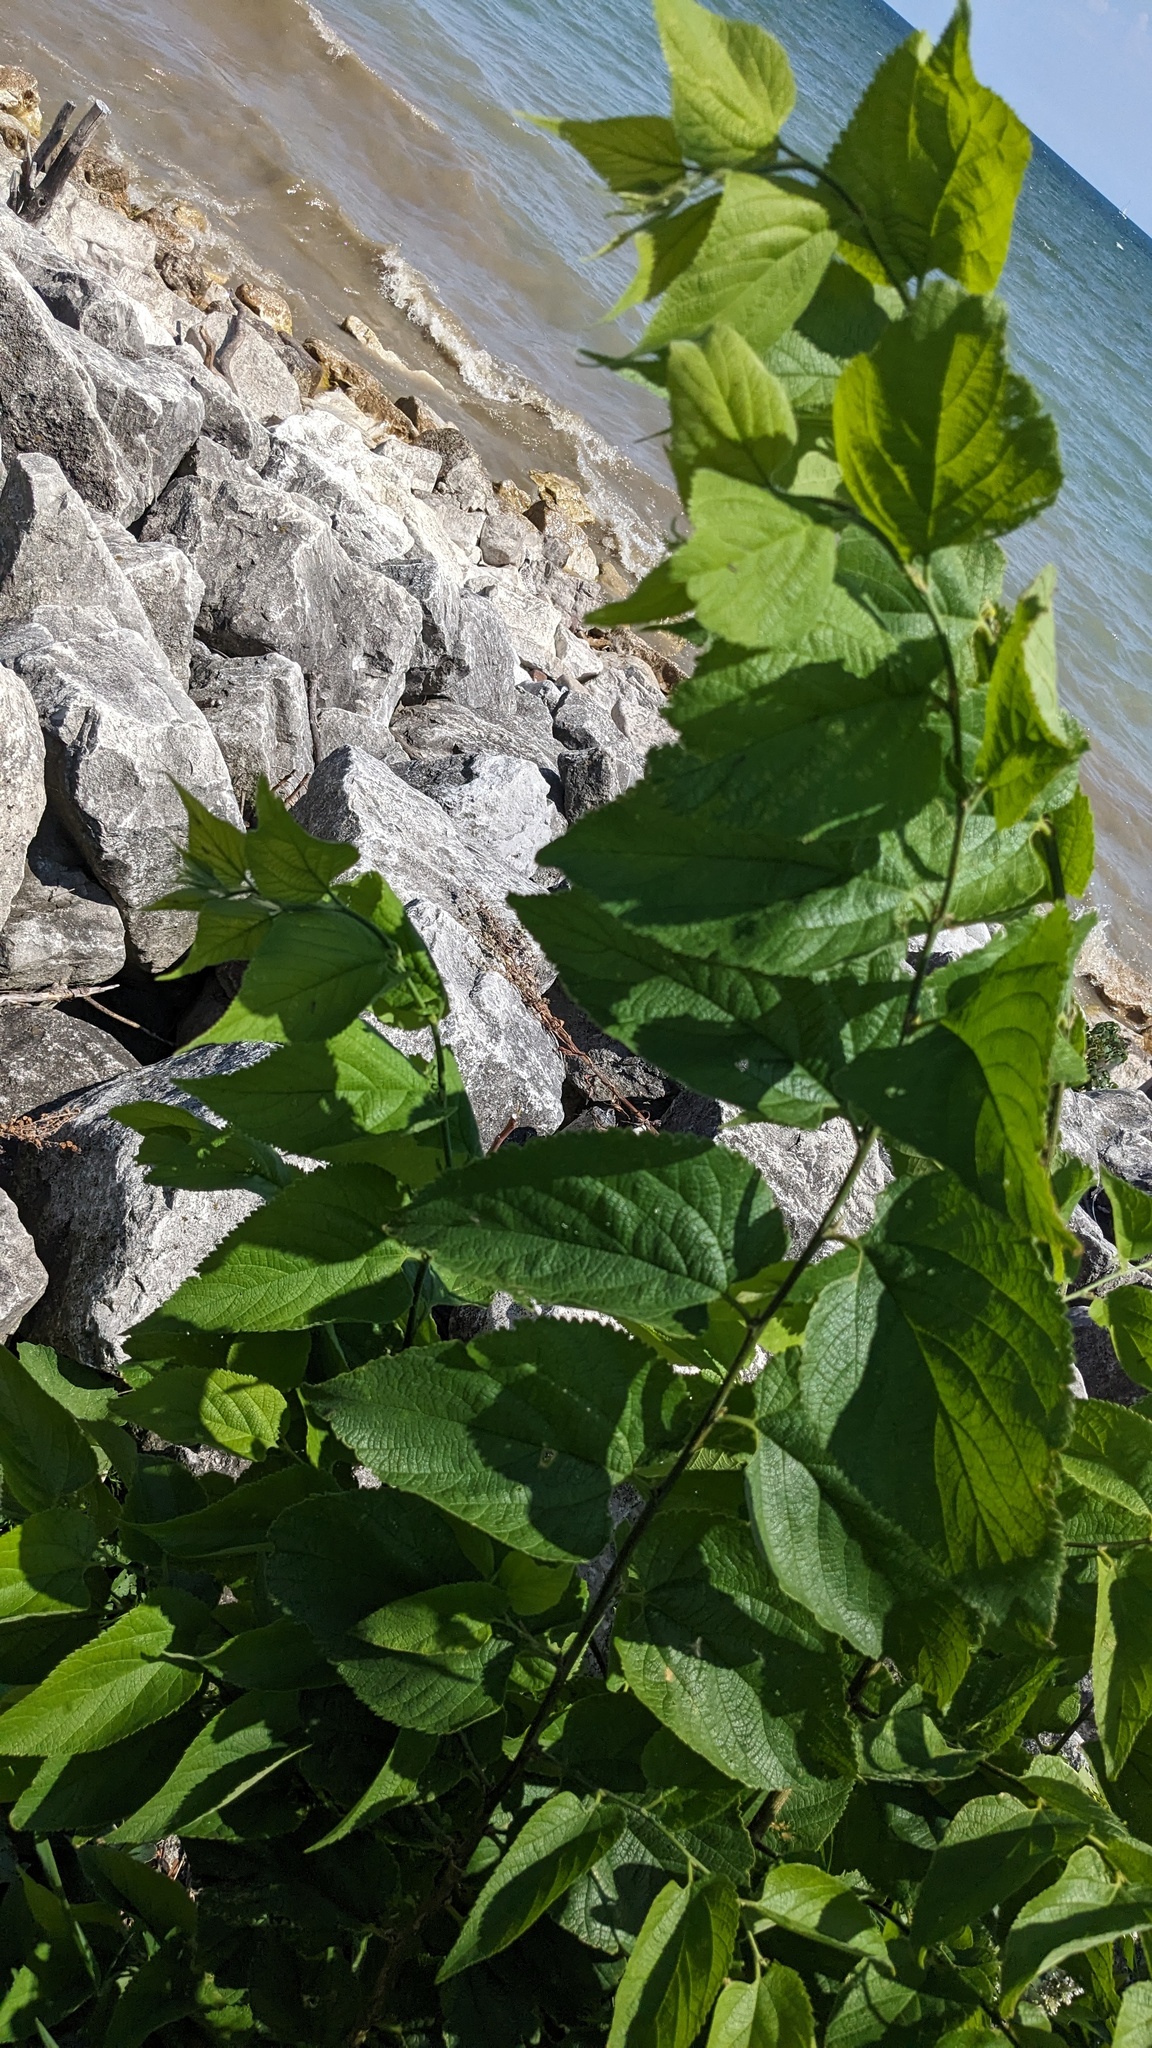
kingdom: Plantae
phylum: Tracheophyta
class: Magnoliopsida
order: Rosales
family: Cannabaceae
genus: Celtis
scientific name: Celtis occidentalis
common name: Common hackberry
